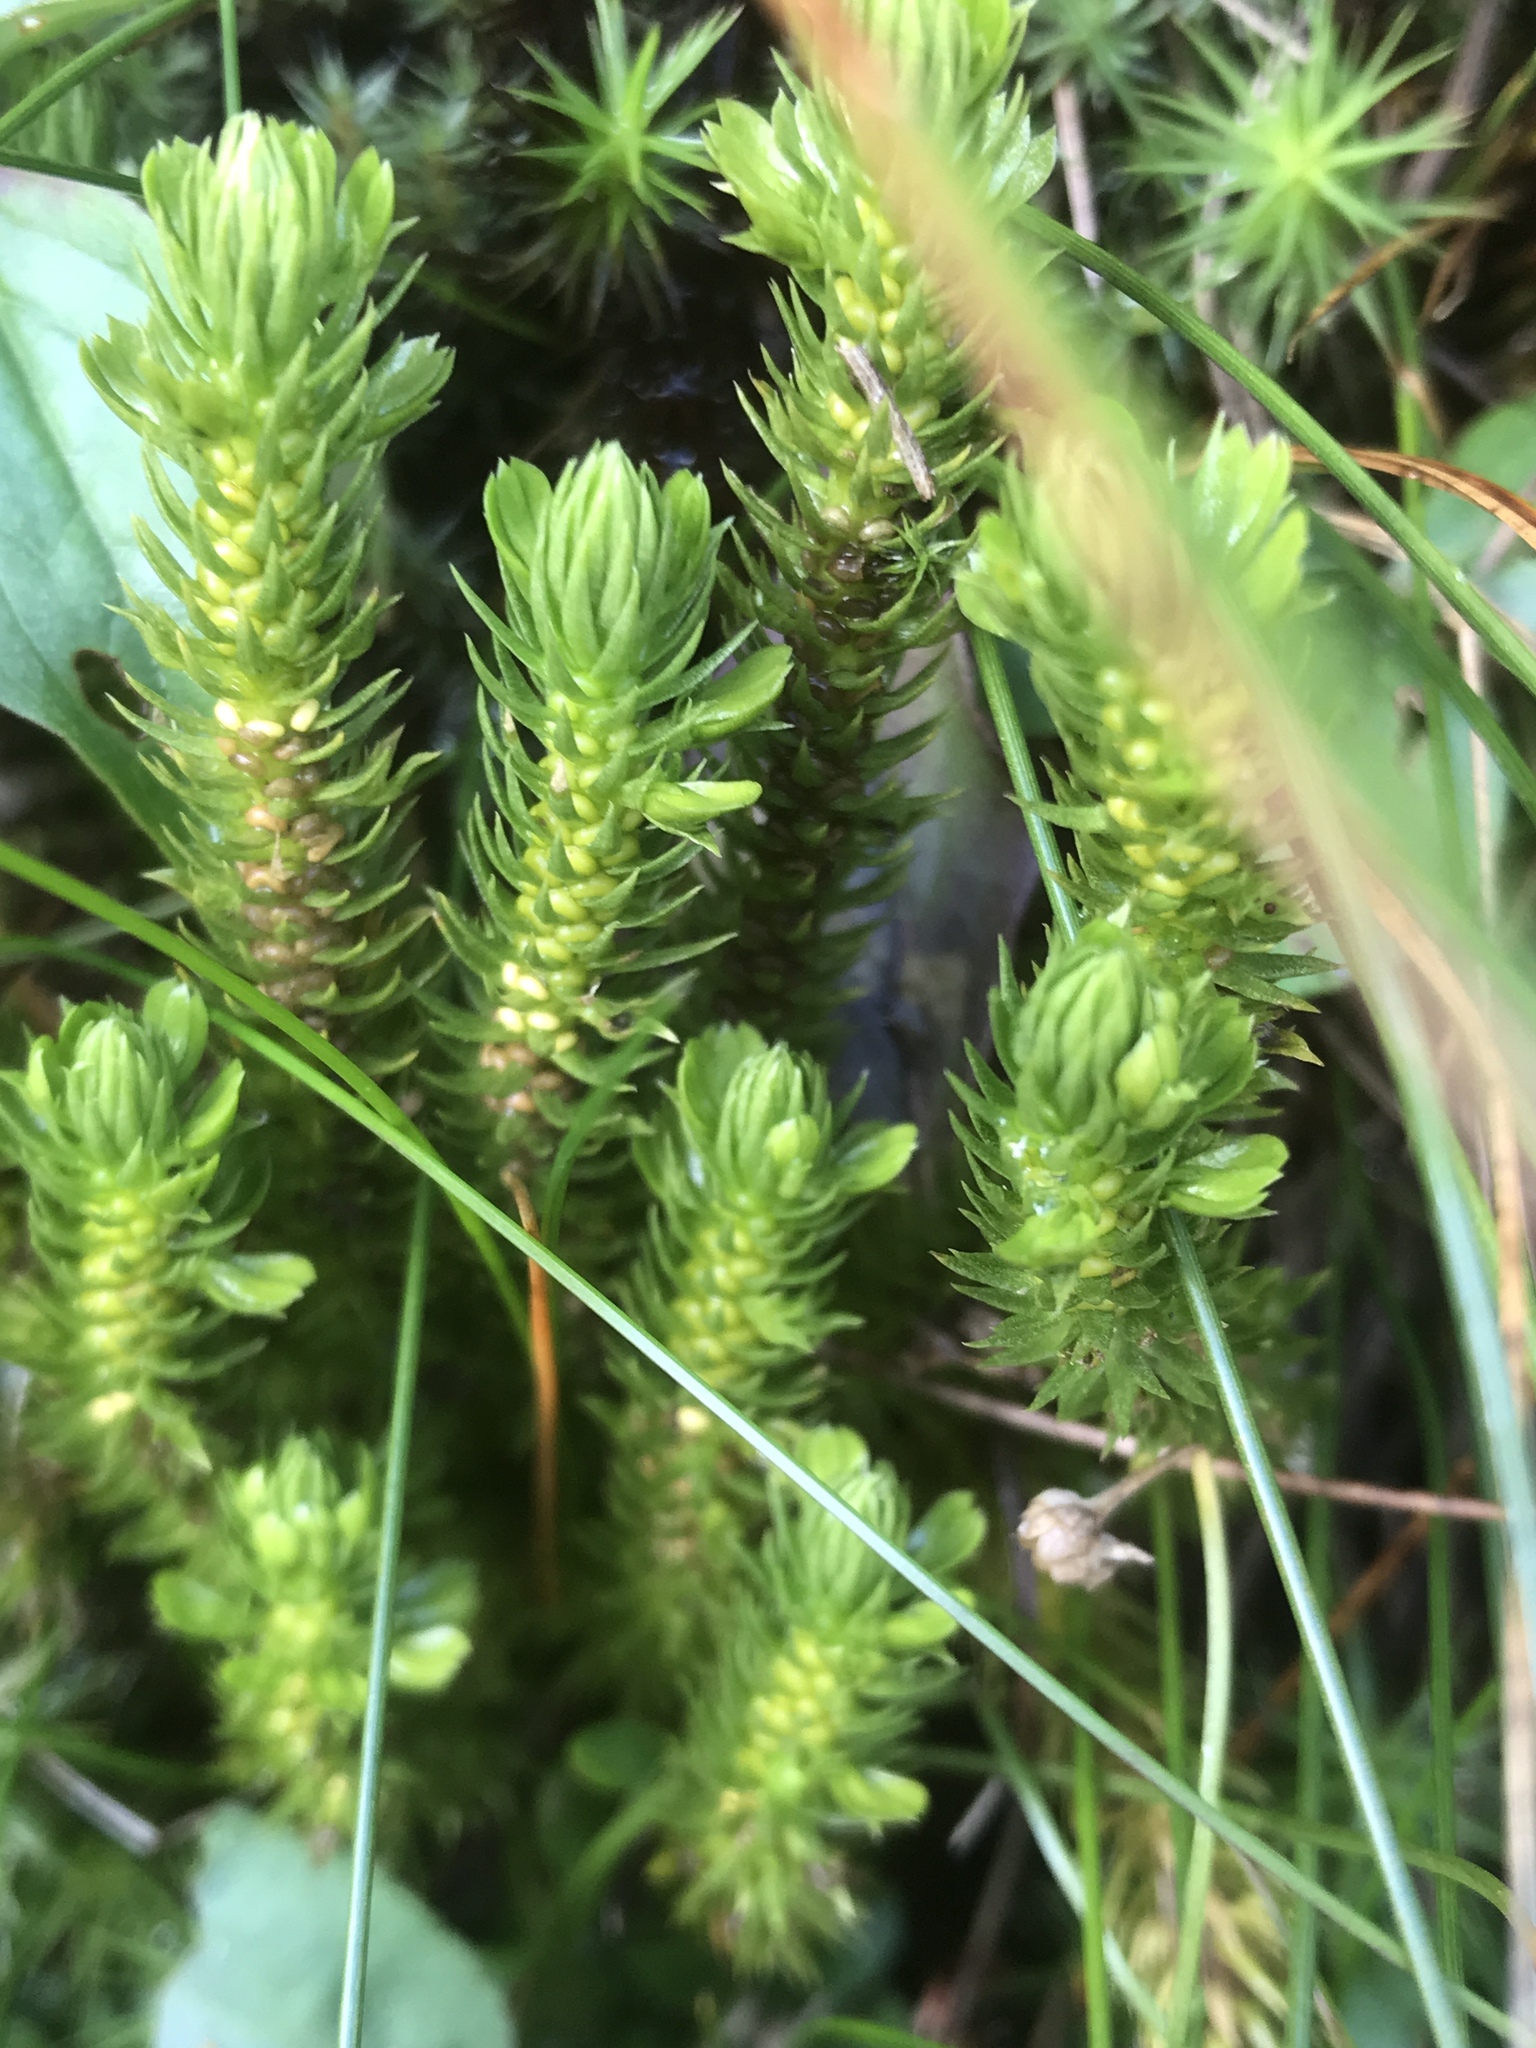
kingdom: Plantae
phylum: Tracheophyta
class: Lycopodiopsida
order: Lycopodiales
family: Lycopodiaceae
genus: Huperzia
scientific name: Huperzia selago
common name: Northern firmoss
